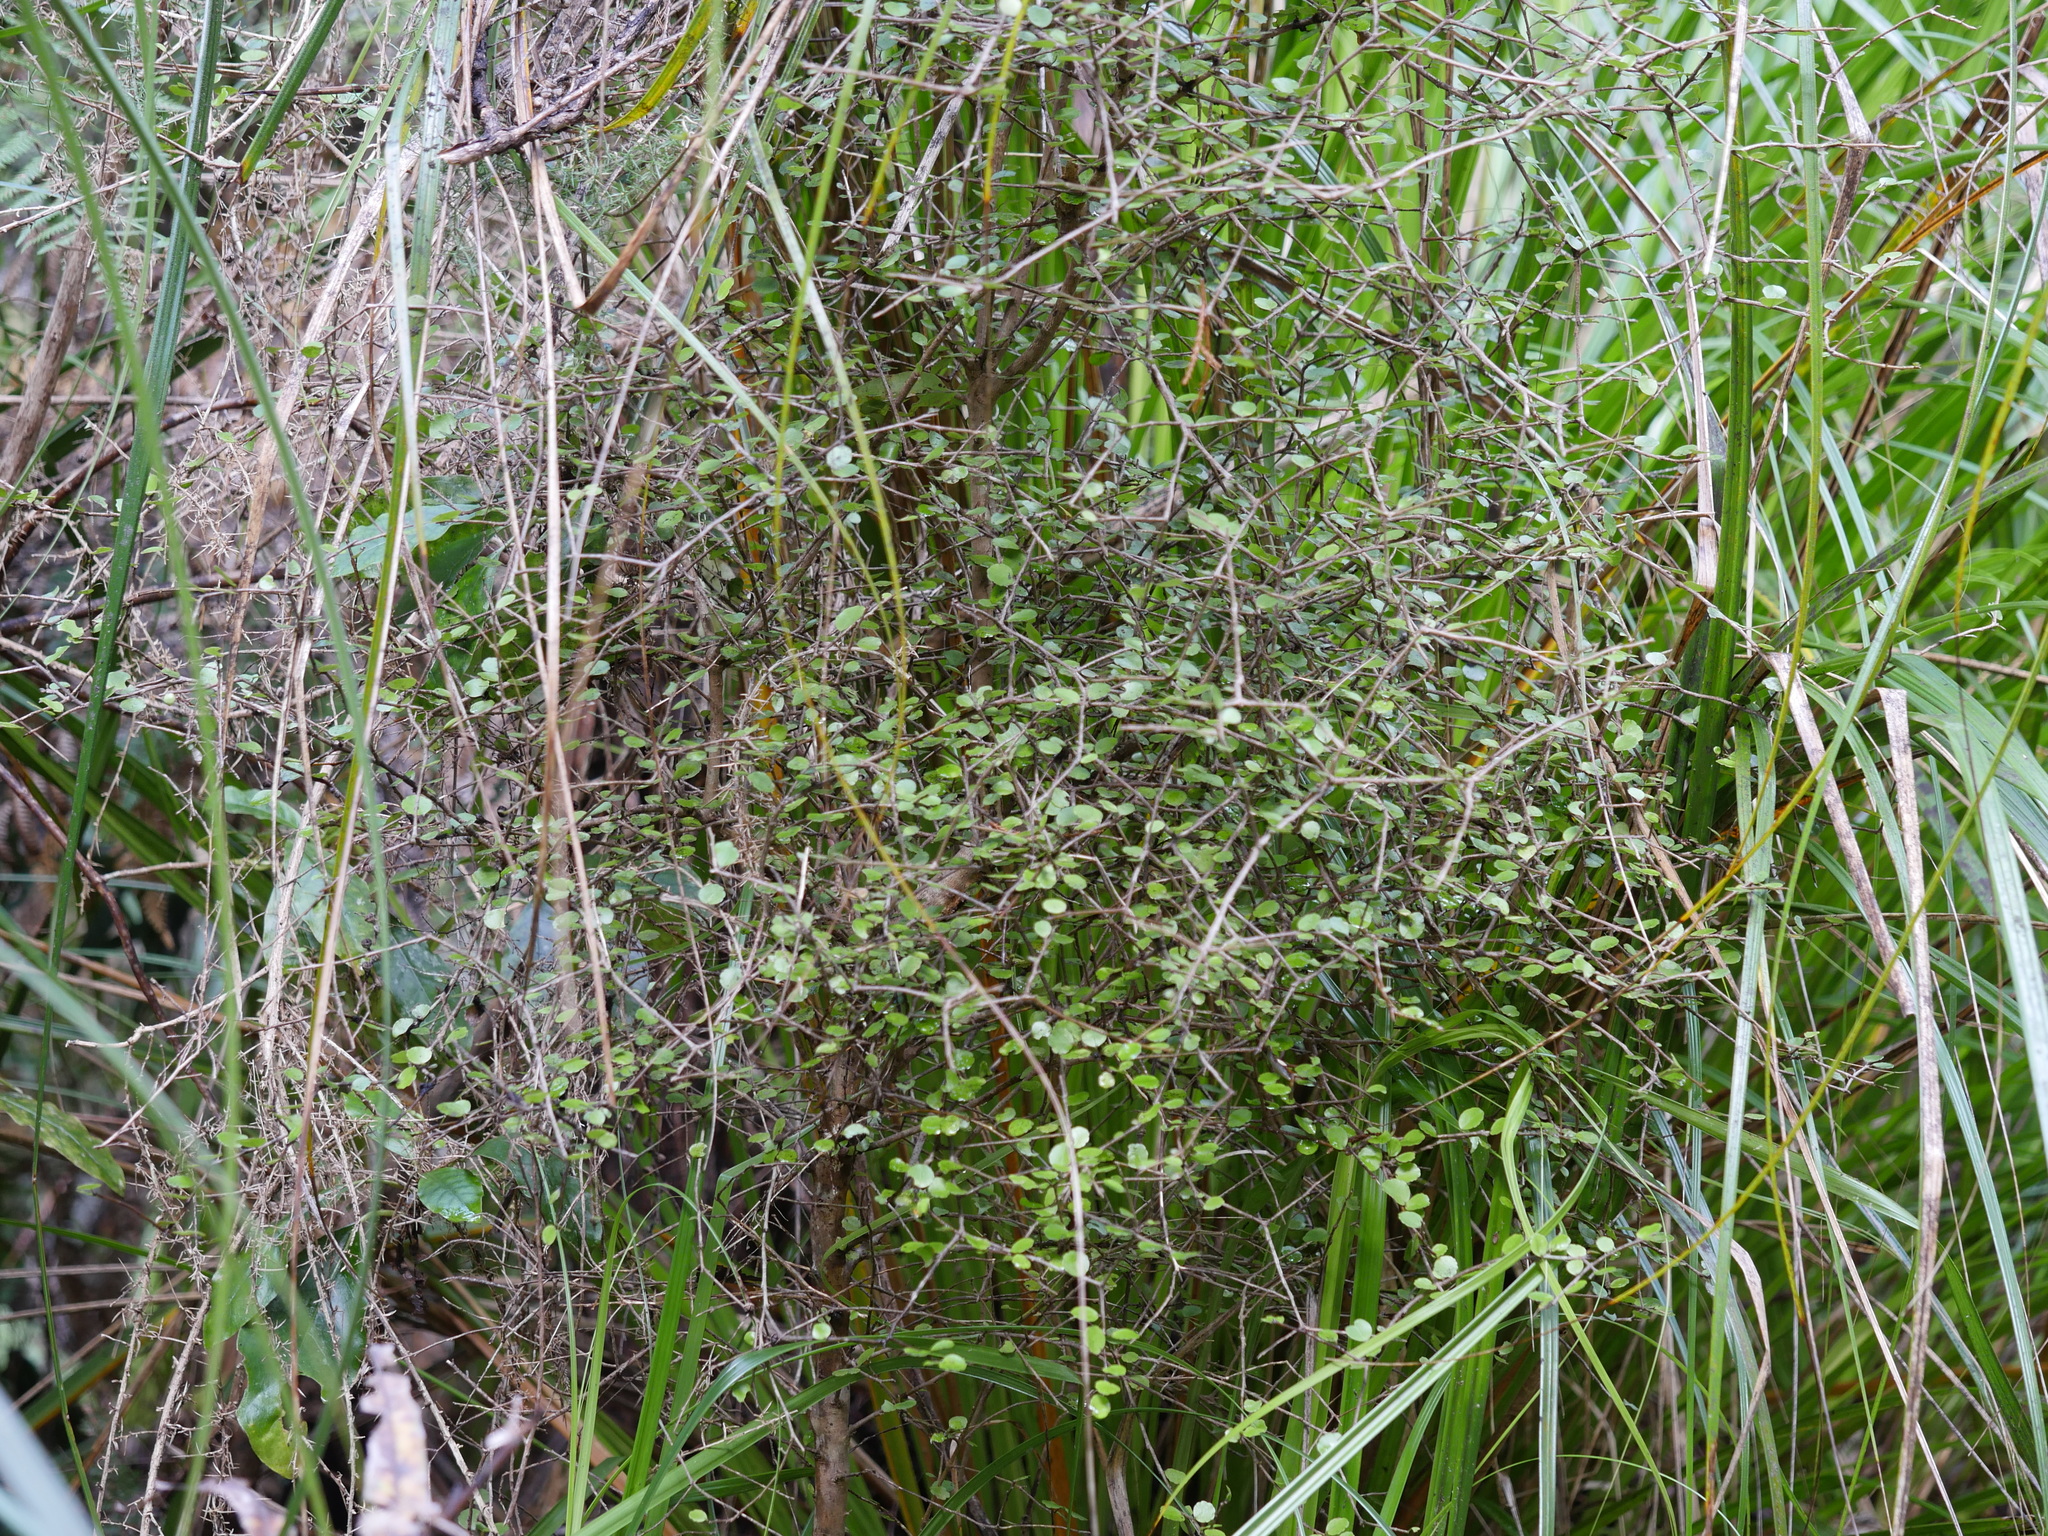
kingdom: Plantae
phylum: Tracheophyta
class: Magnoliopsida
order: Apiales
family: Araliaceae
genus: Raukaua
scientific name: Raukaua anomalus
